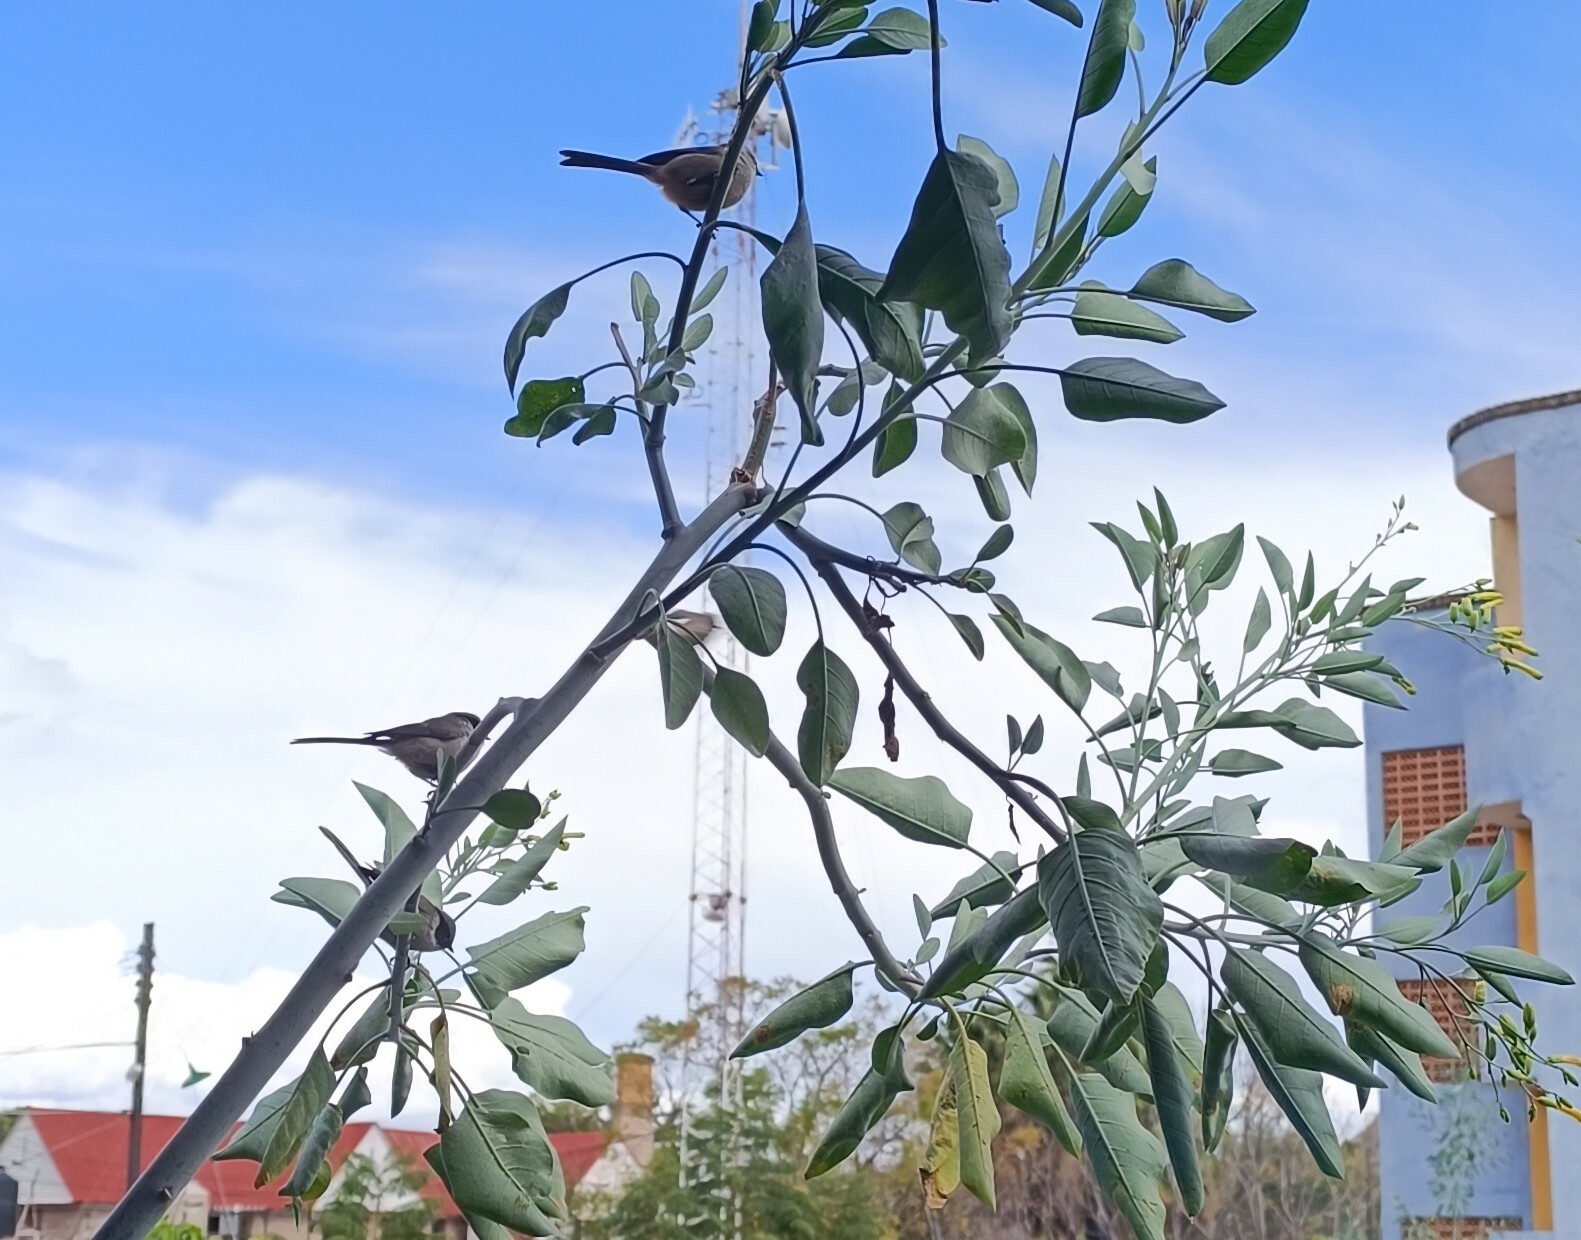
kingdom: Animalia
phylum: Chordata
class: Aves
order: Passeriformes
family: Aegithalidae
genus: Psaltriparus
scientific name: Psaltriparus minimus
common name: American bushtit
